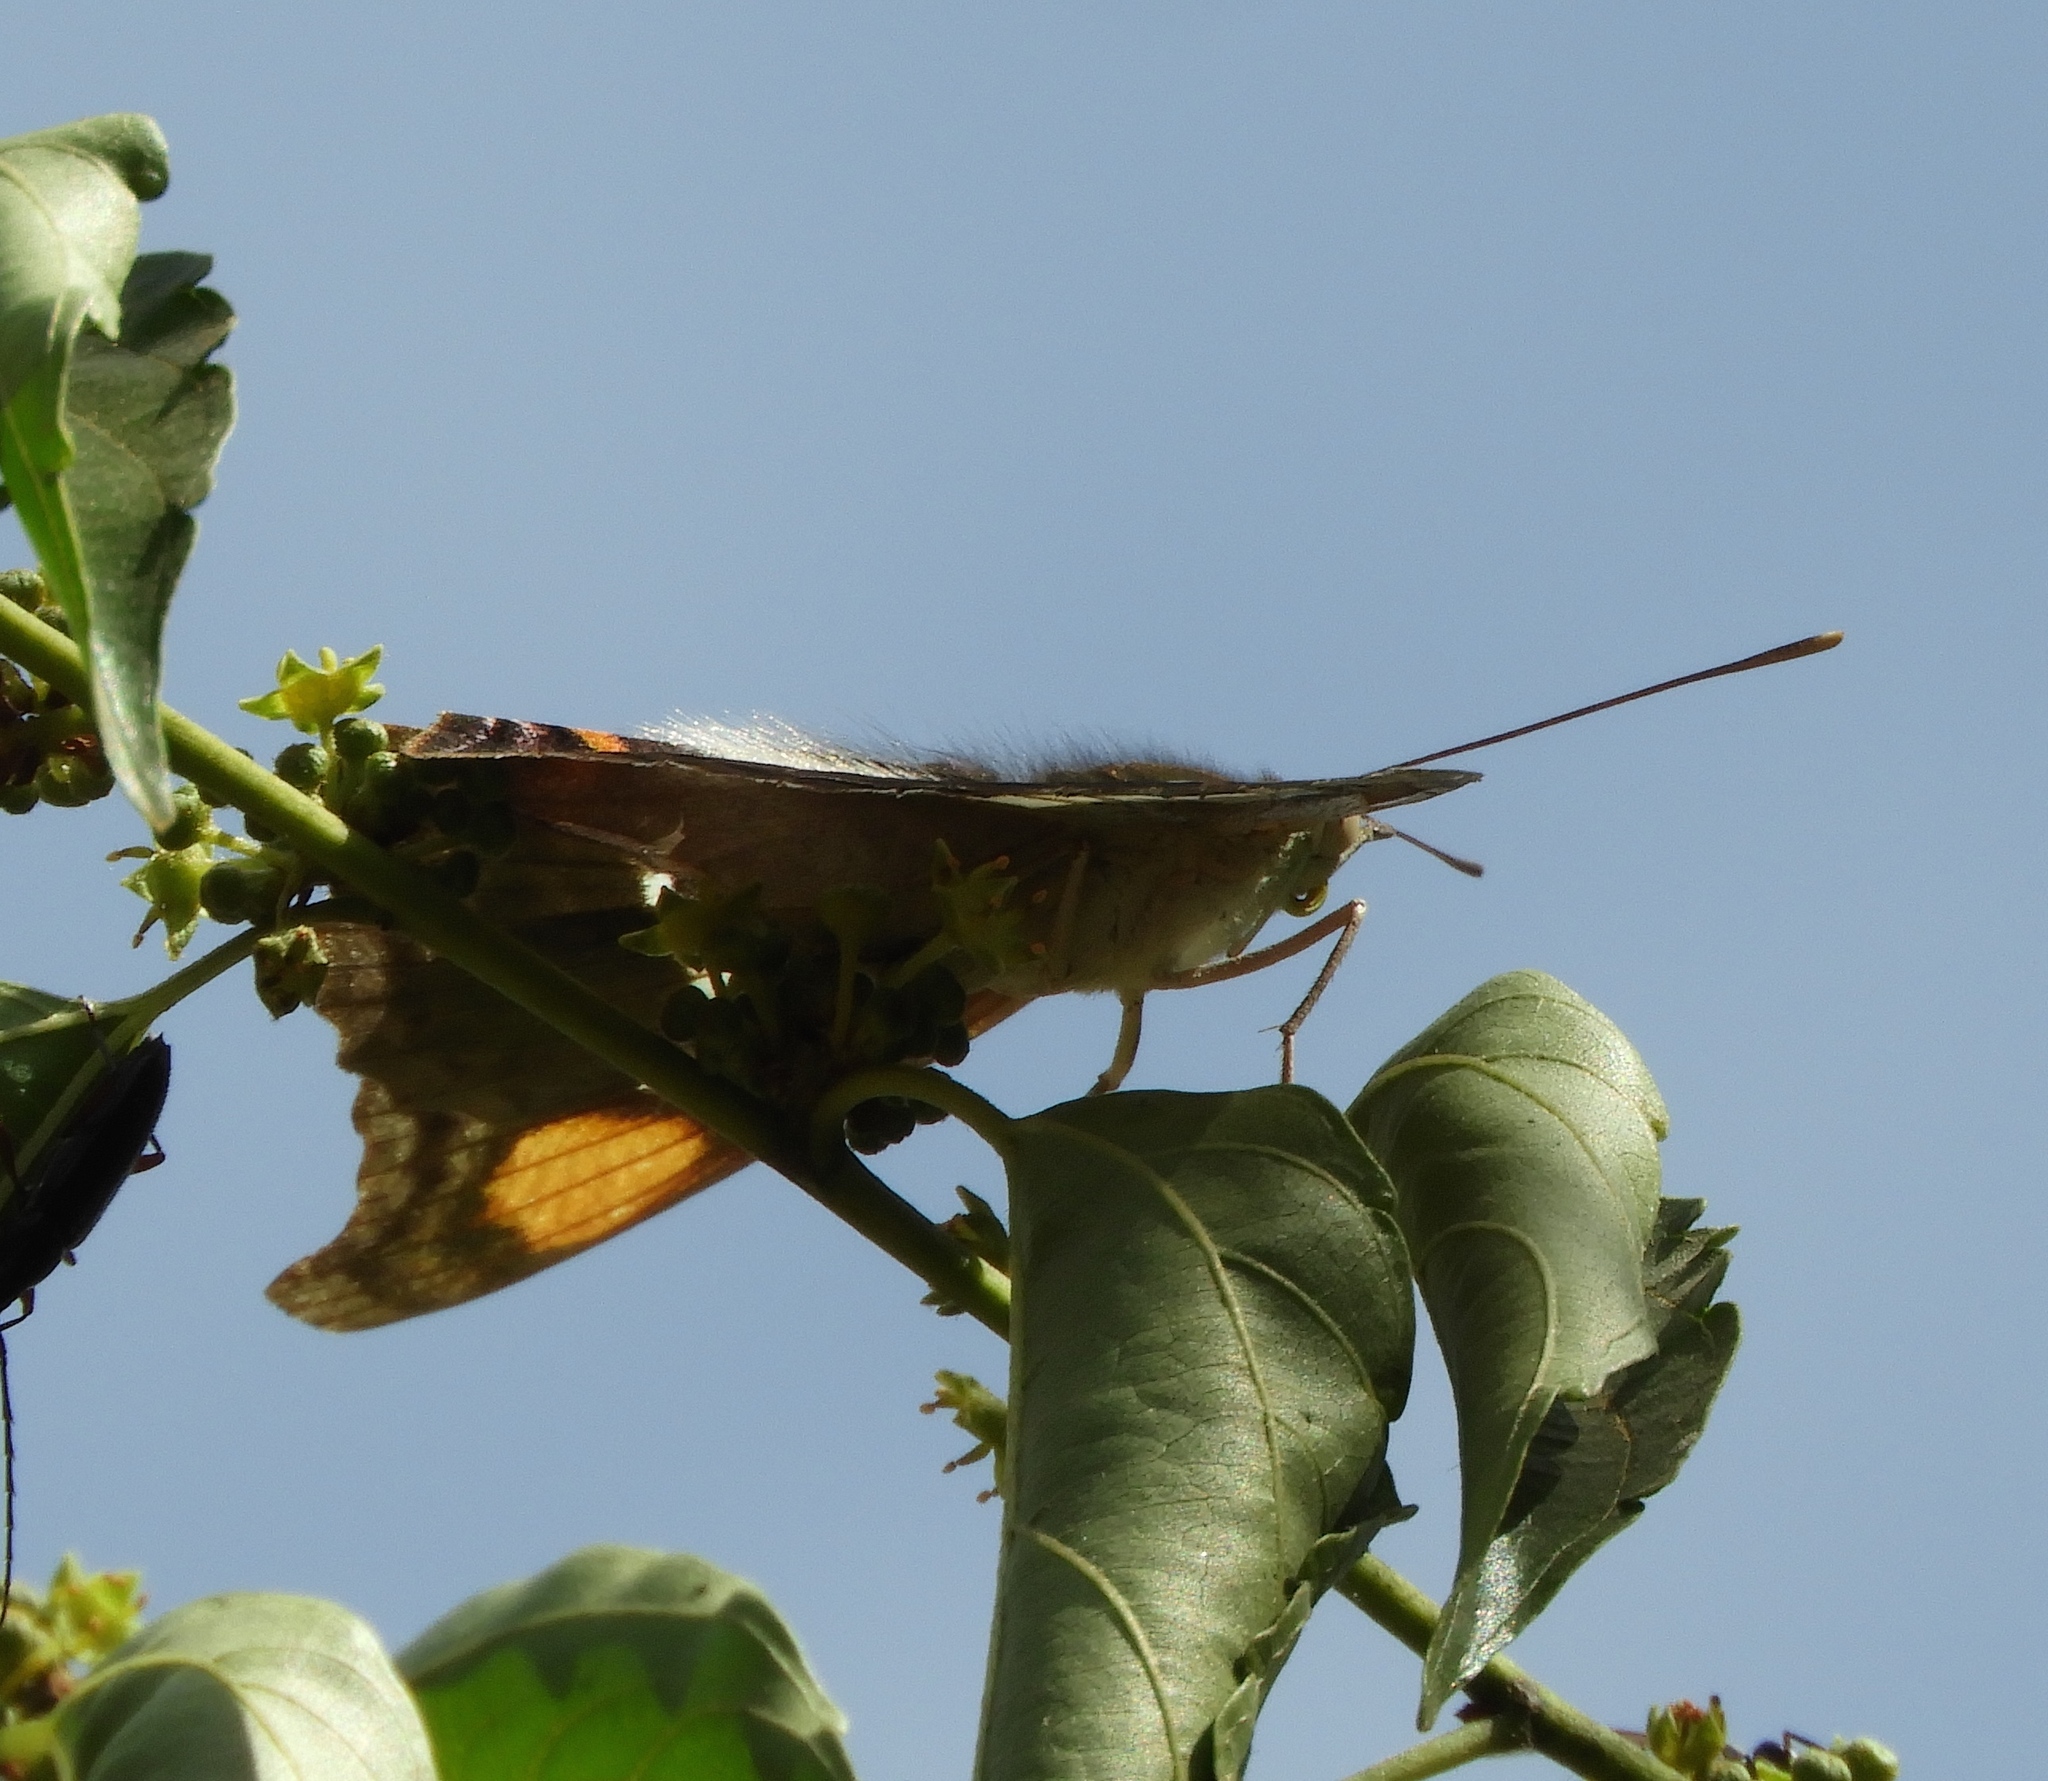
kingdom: Animalia
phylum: Arthropoda
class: Insecta
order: Lepidoptera
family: Nymphalidae
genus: Doxocopa
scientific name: Doxocopa laure
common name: Silver emperor
